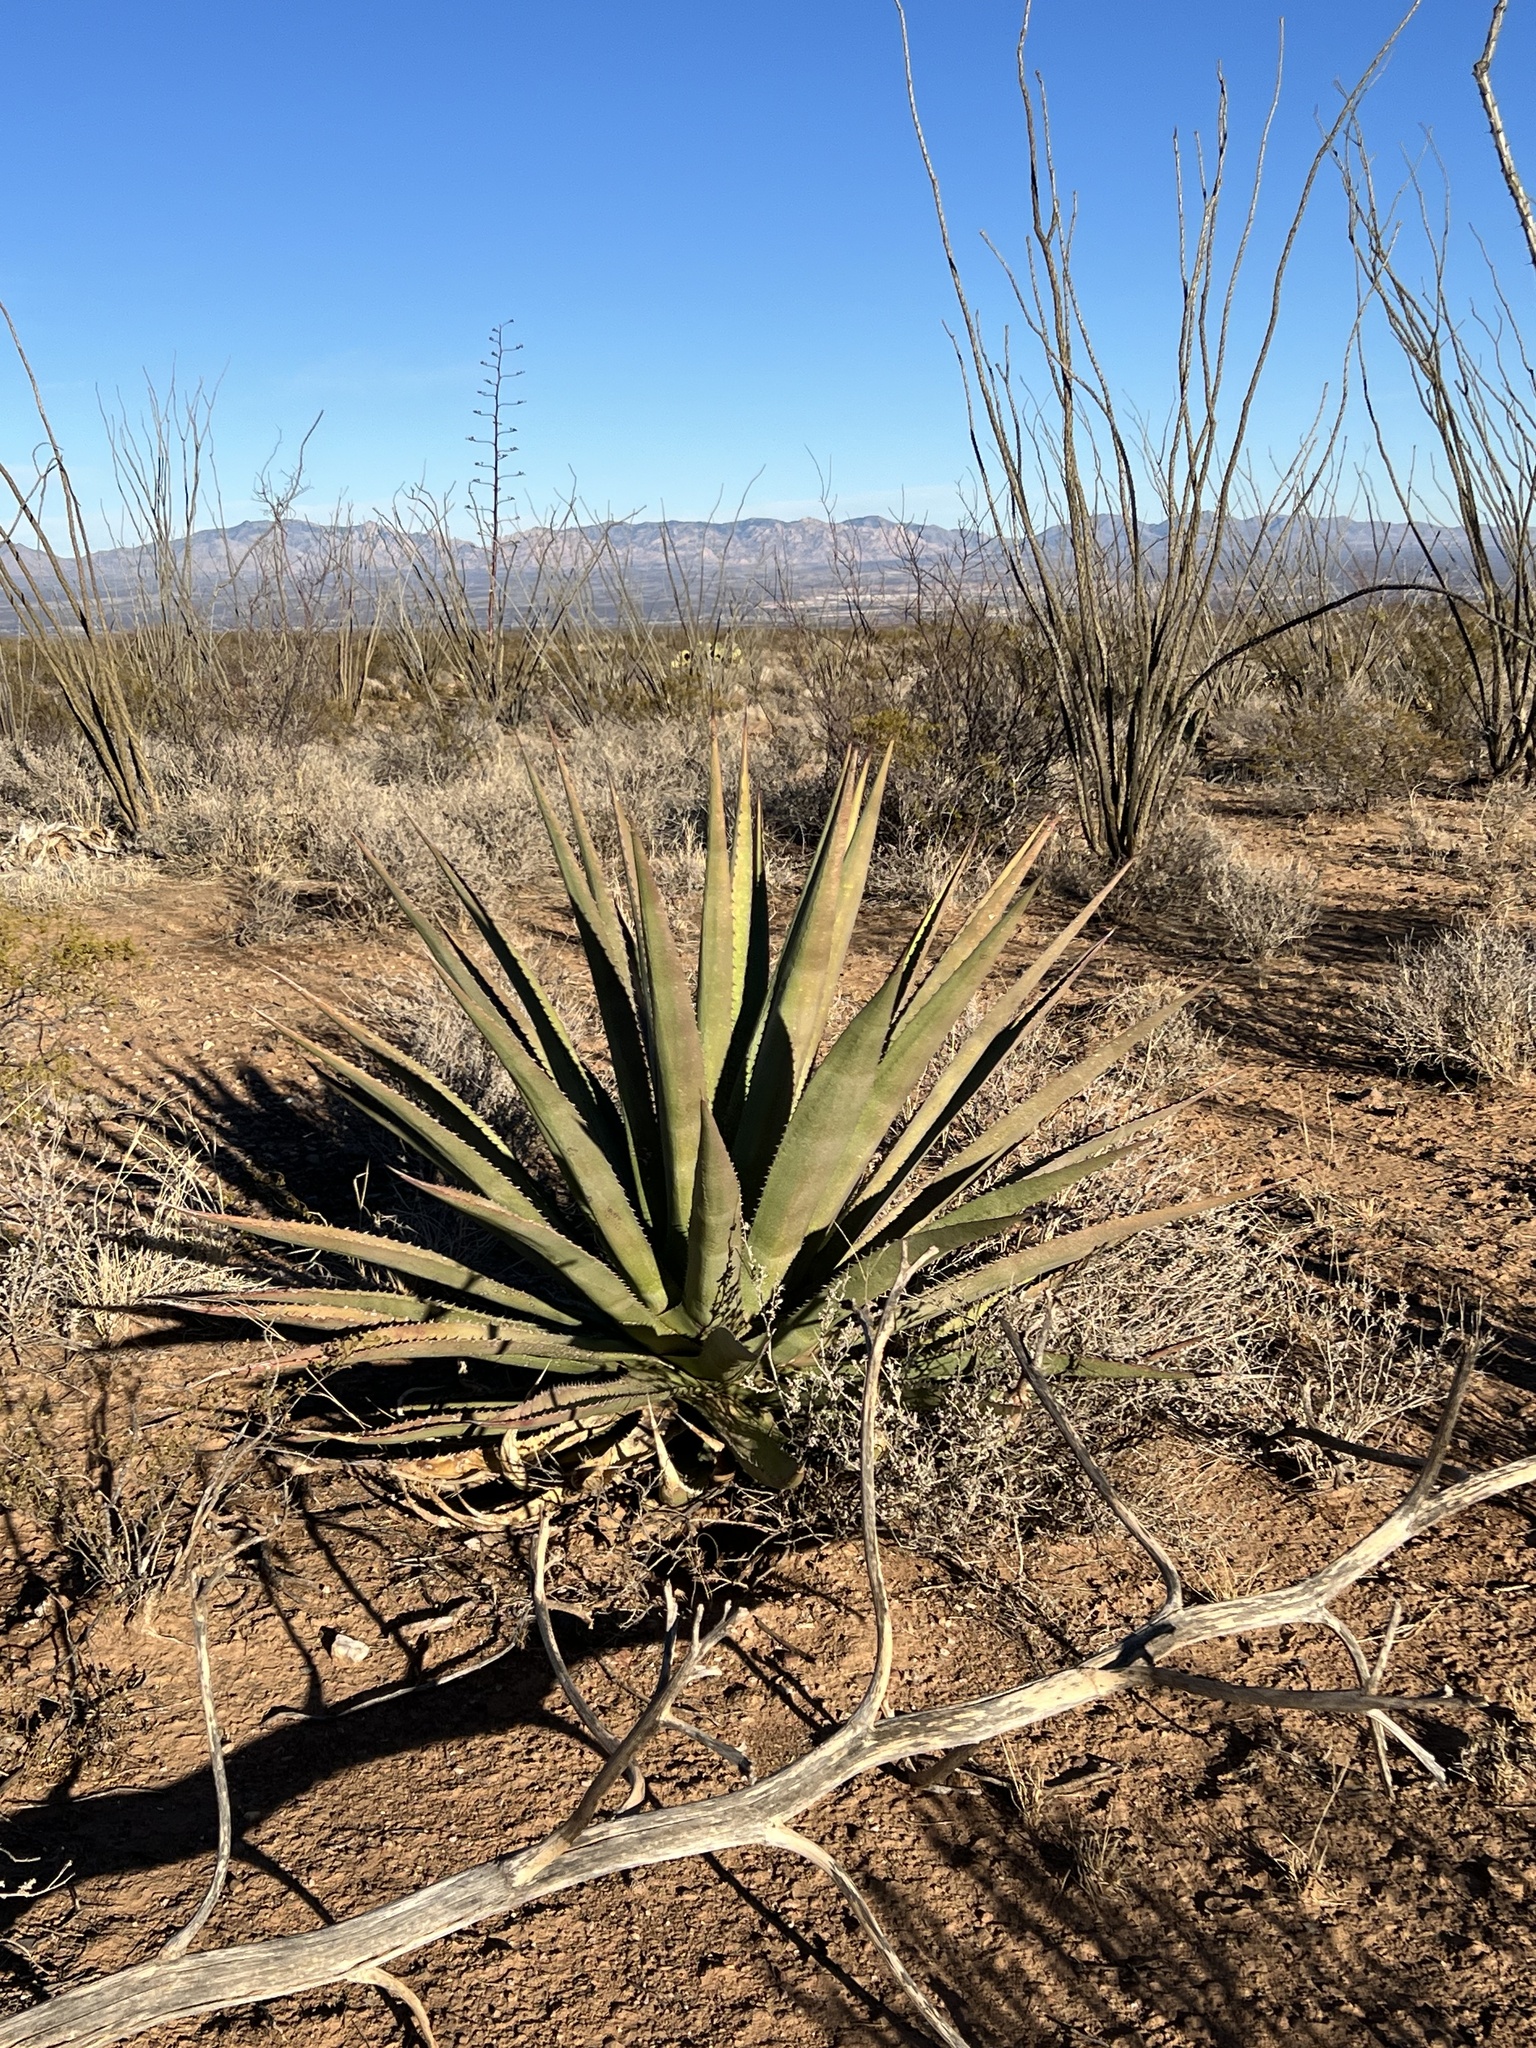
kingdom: Plantae
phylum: Tracheophyta
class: Liliopsida
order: Asparagales
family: Asparagaceae
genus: Agave
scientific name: Agave palmeri
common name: Palmer agave
